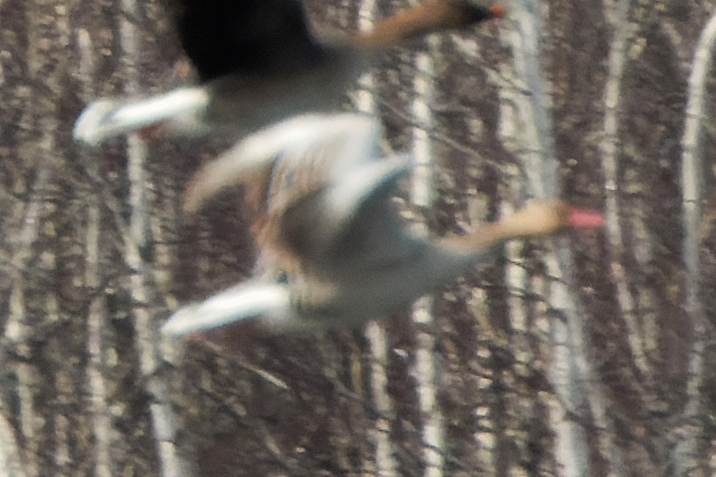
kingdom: Animalia
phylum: Chordata
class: Aves
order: Anseriformes
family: Anatidae
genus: Anser
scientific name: Anser anser
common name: Greylag goose
